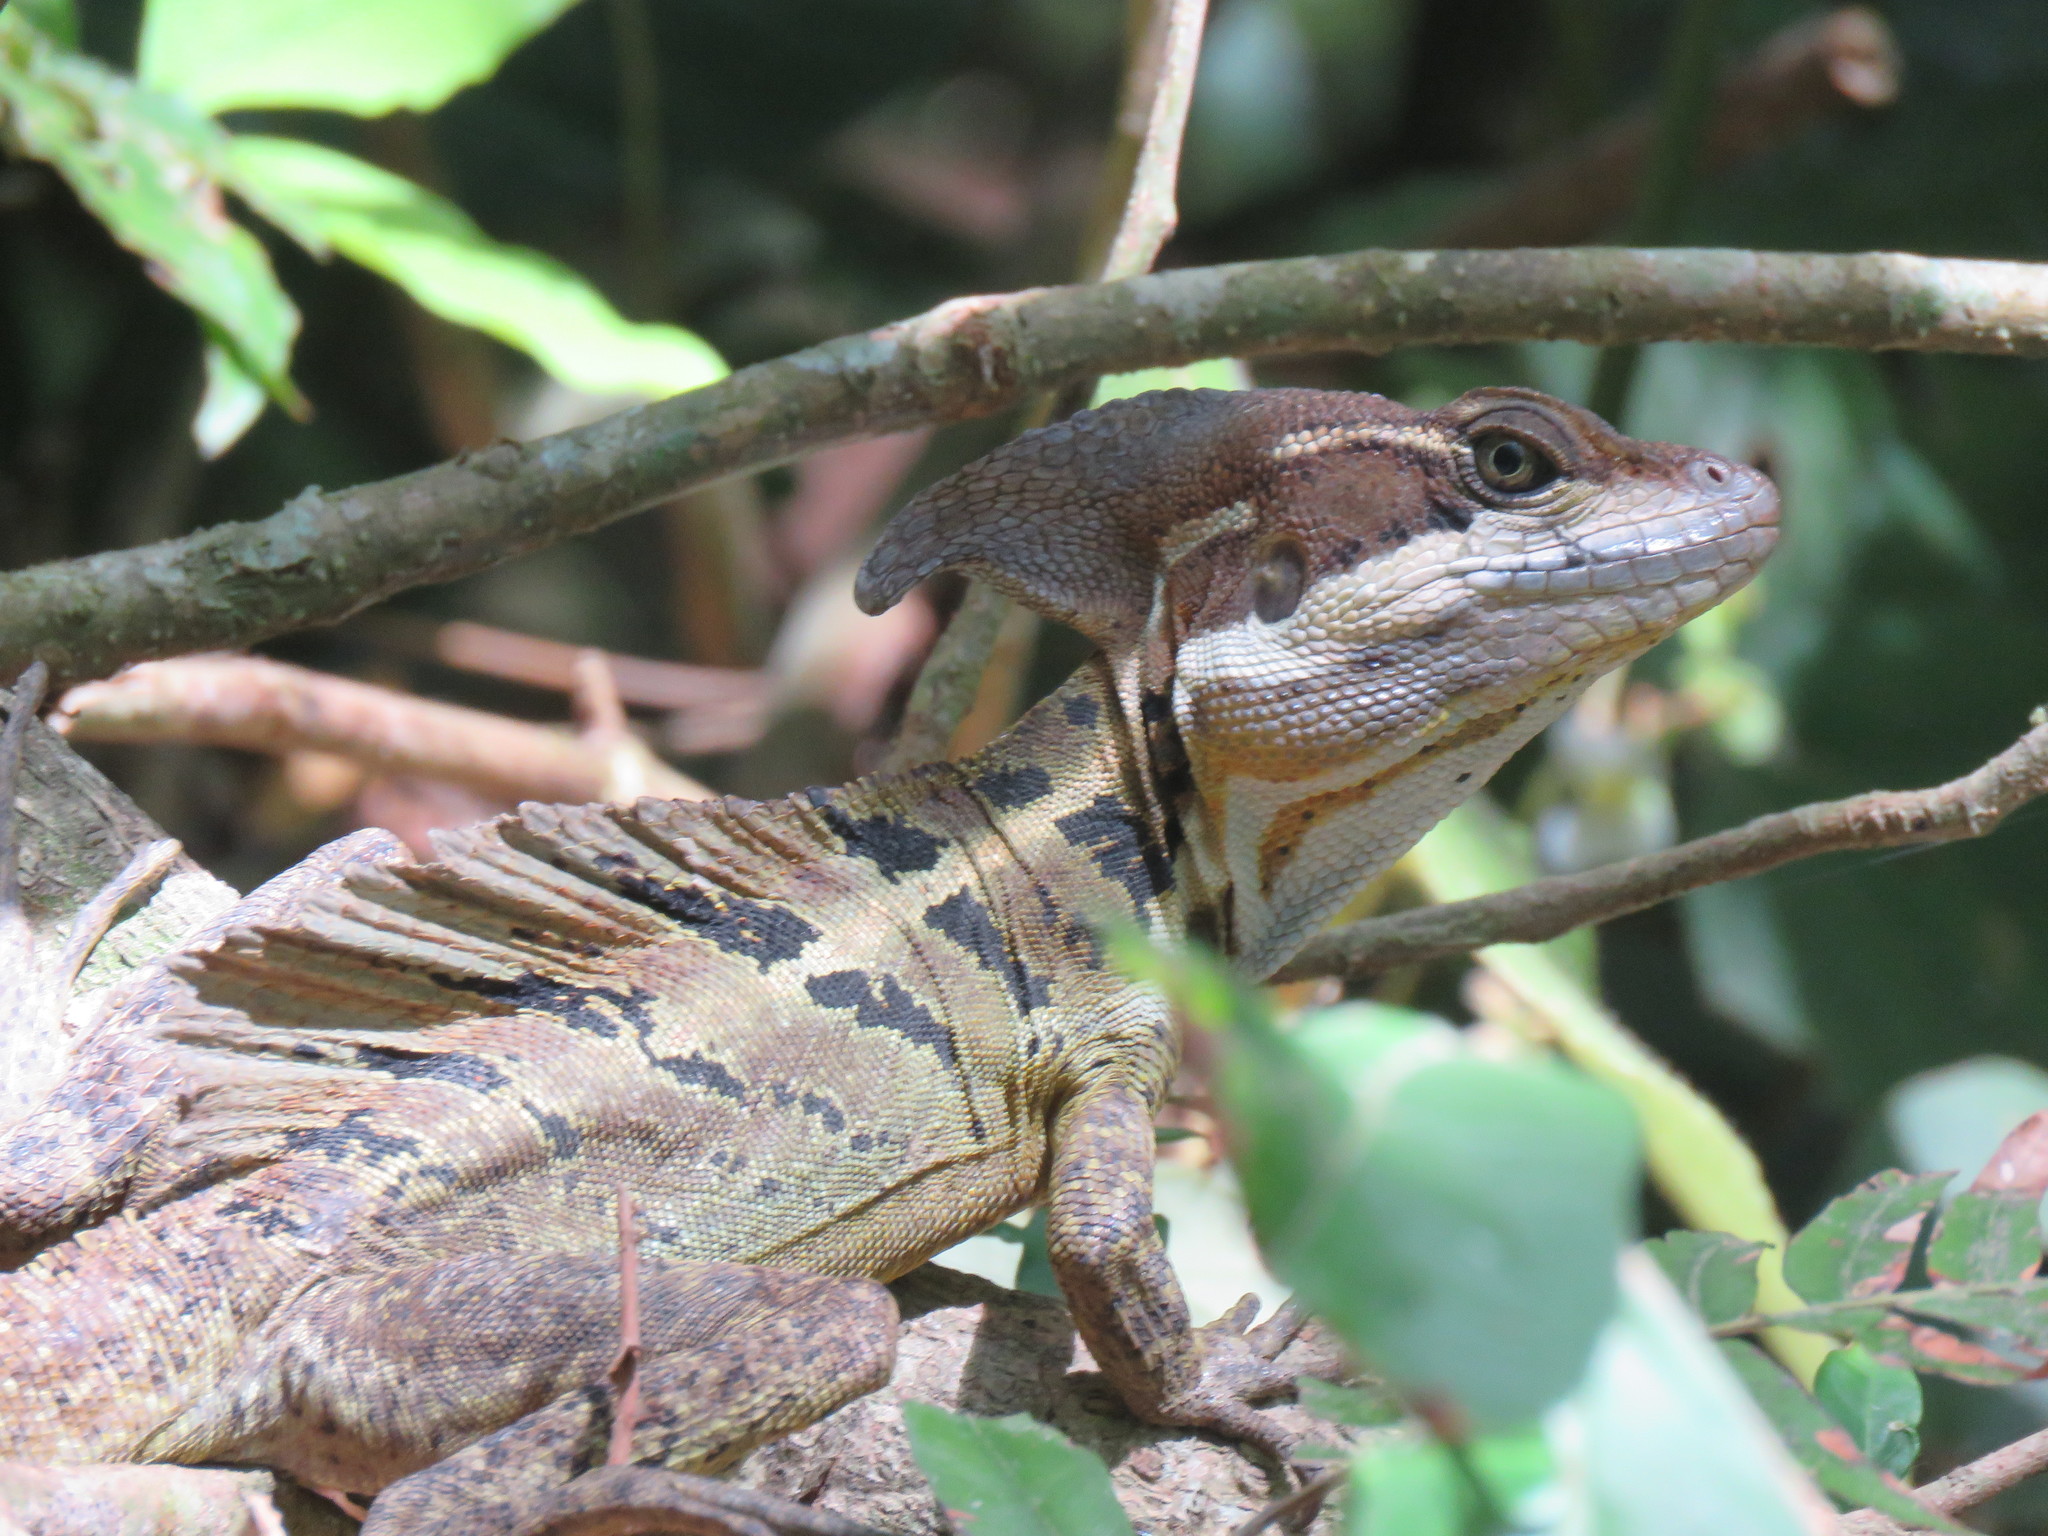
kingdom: Animalia
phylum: Chordata
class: Squamata
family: Corytophanidae
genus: Basiliscus
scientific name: Basiliscus basiliscus
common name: Common basilisk
